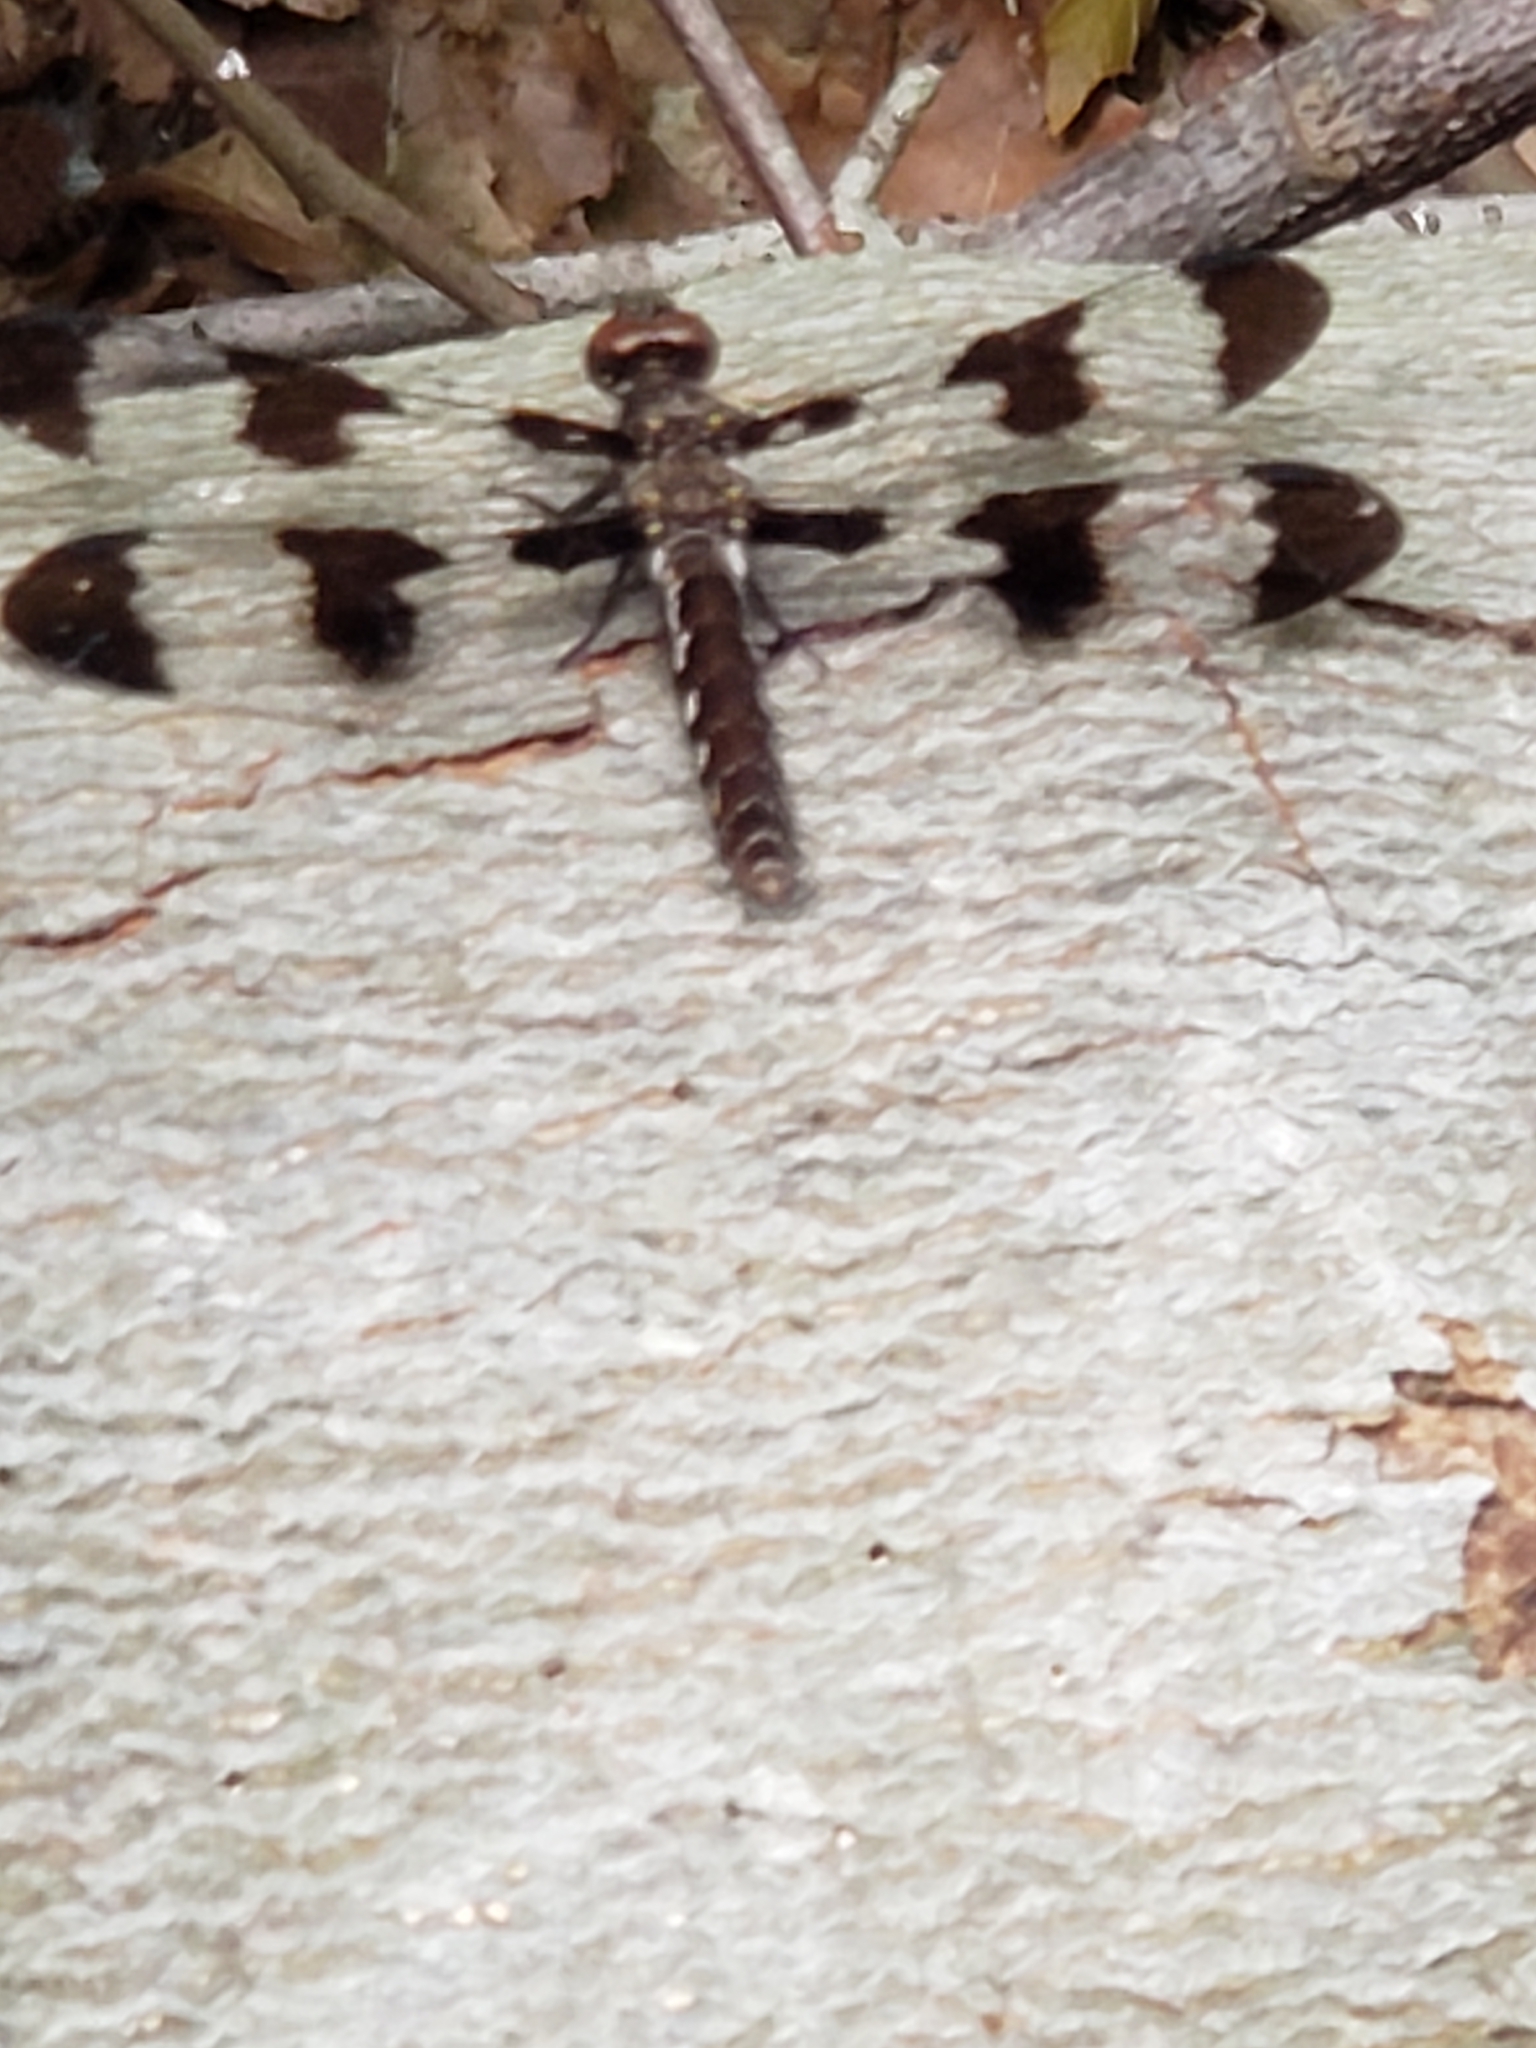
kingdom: Animalia
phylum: Arthropoda
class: Insecta
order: Odonata
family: Libellulidae
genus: Plathemis
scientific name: Plathemis lydia
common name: Common whitetail
